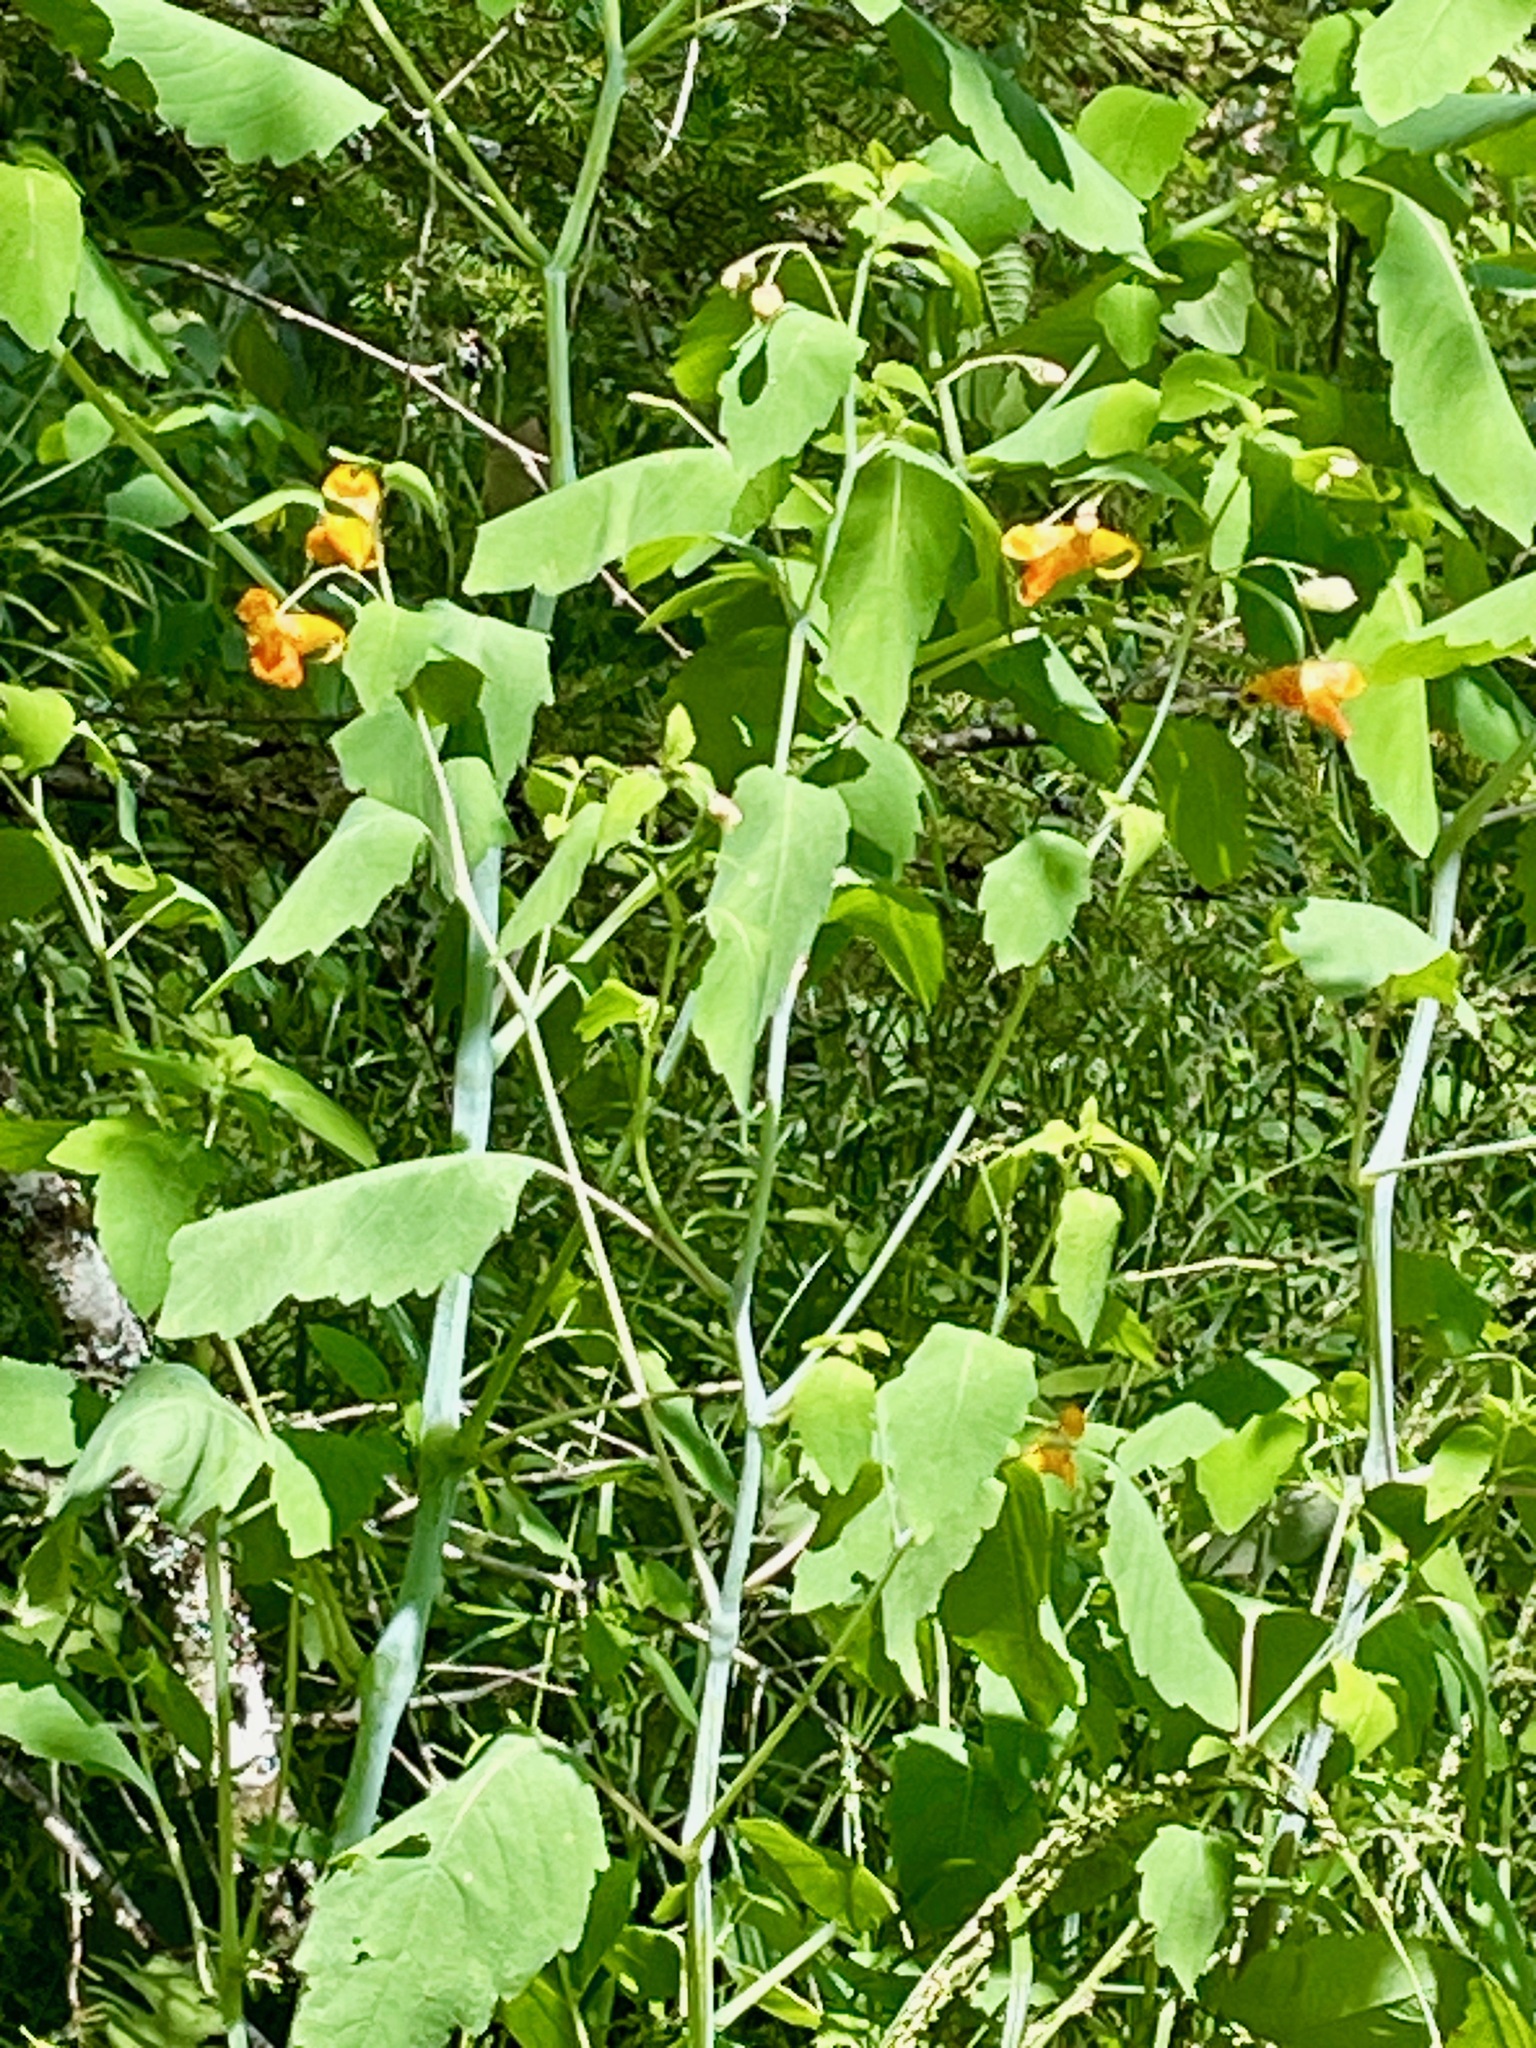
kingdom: Plantae
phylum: Tracheophyta
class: Magnoliopsida
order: Ericales
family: Balsaminaceae
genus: Impatiens
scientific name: Impatiens capensis
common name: Orange balsam
